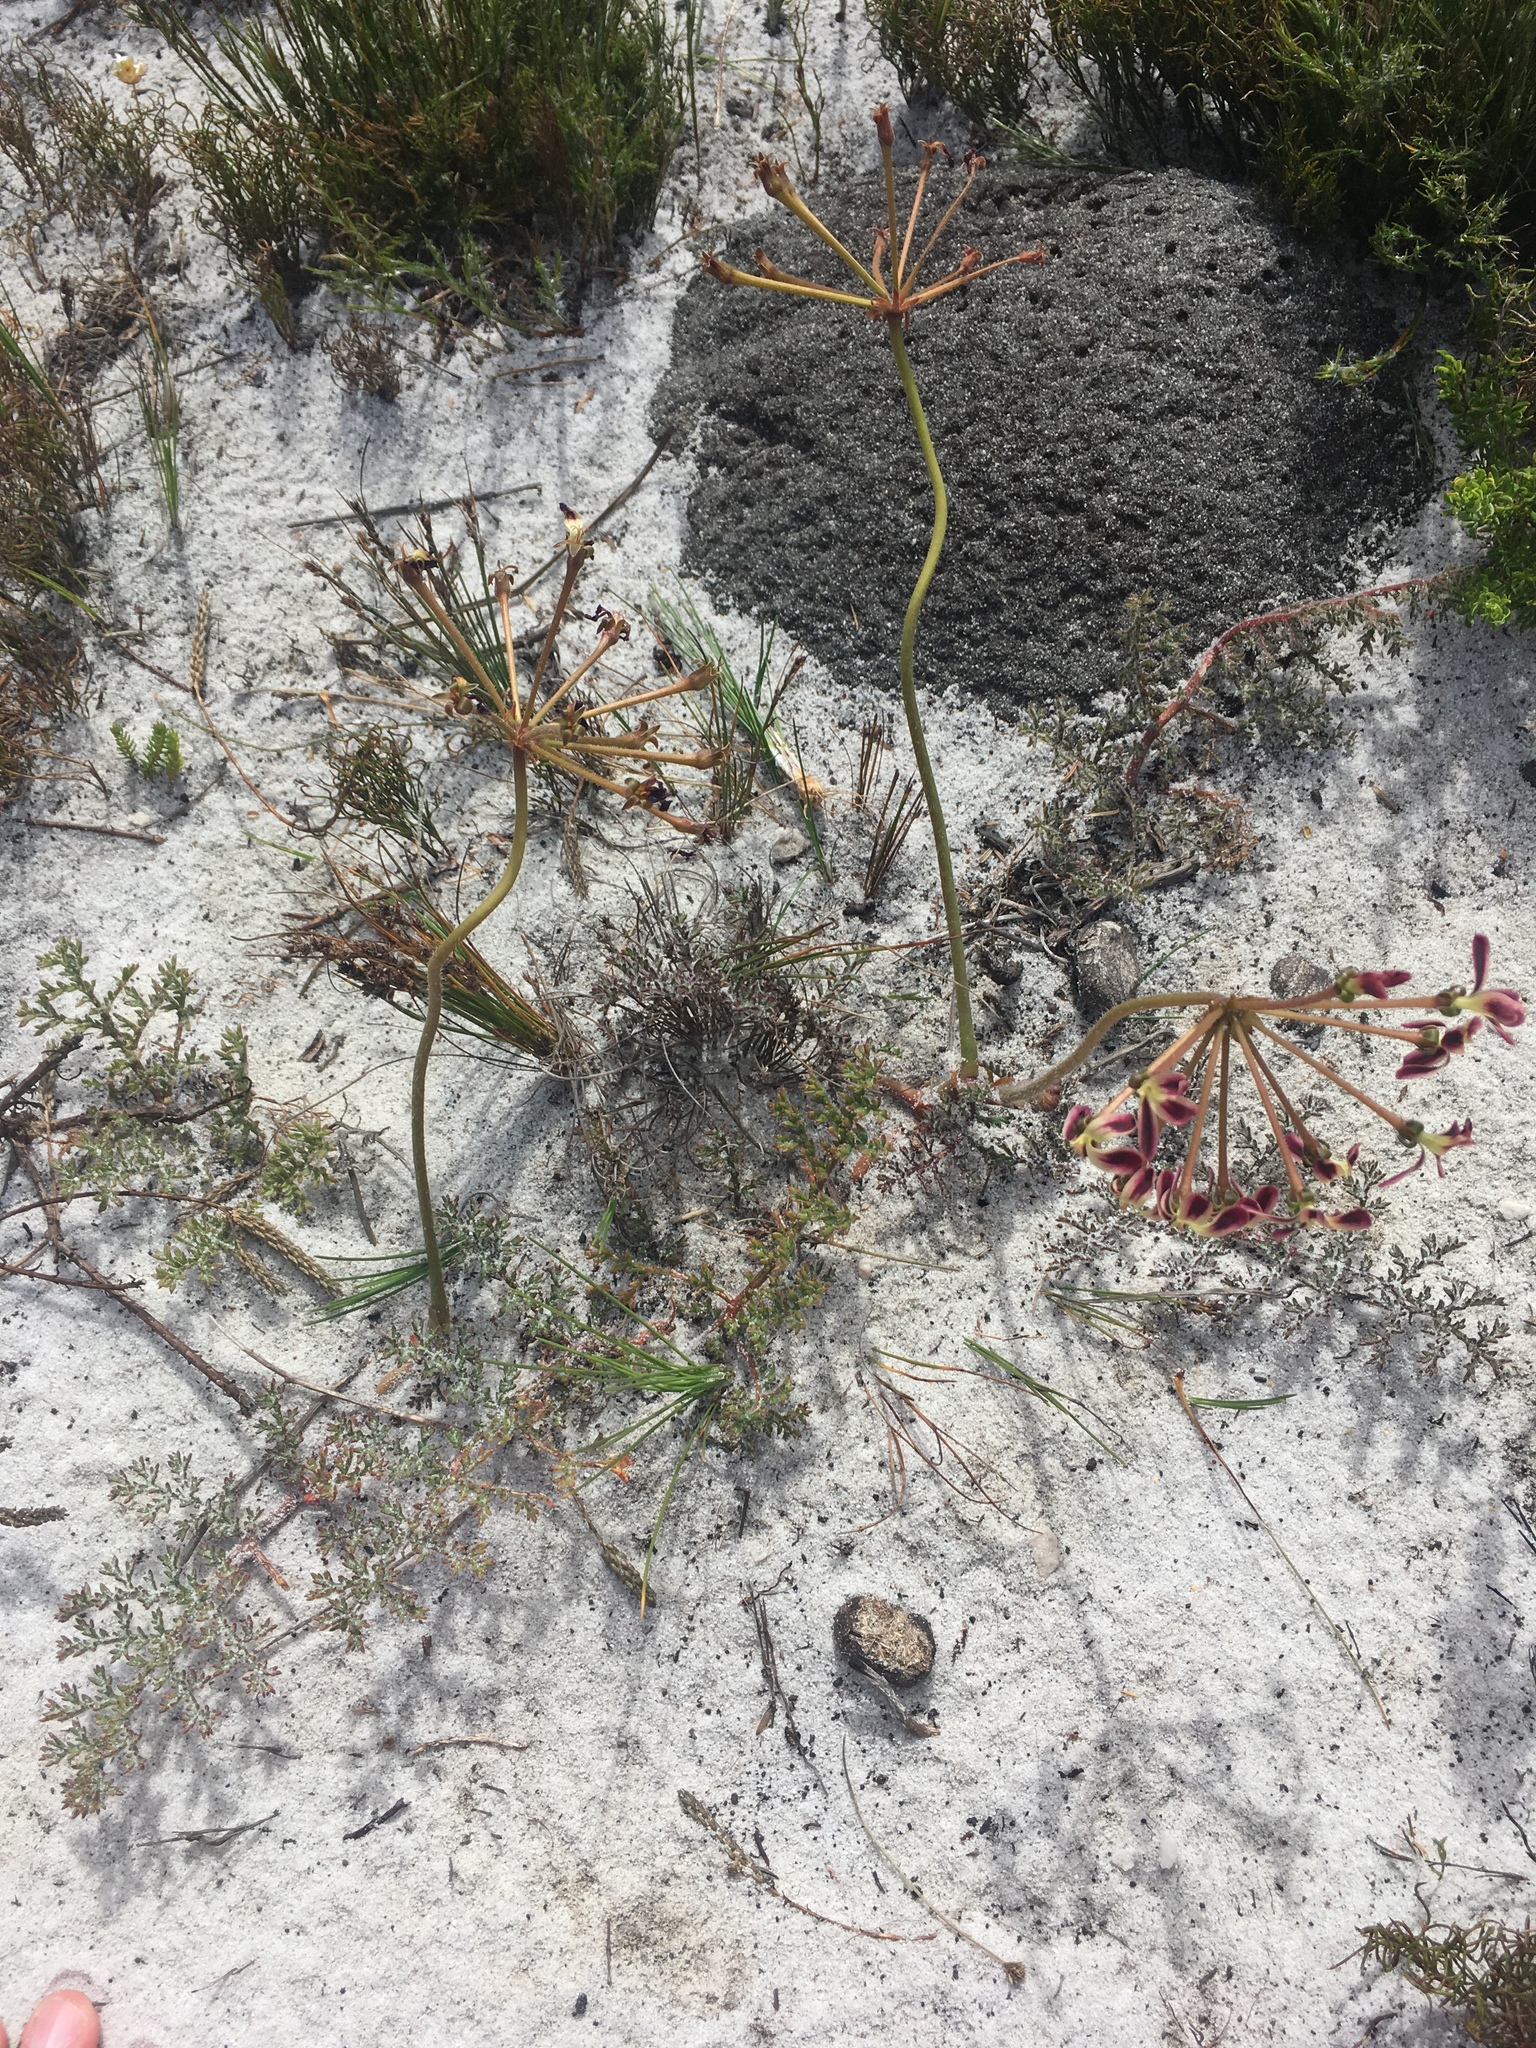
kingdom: Plantae
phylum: Tracheophyta
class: Magnoliopsida
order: Geraniales
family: Geraniaceae
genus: Pelargonium
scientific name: Pelargonium triste
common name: Night-scent pelargonium
